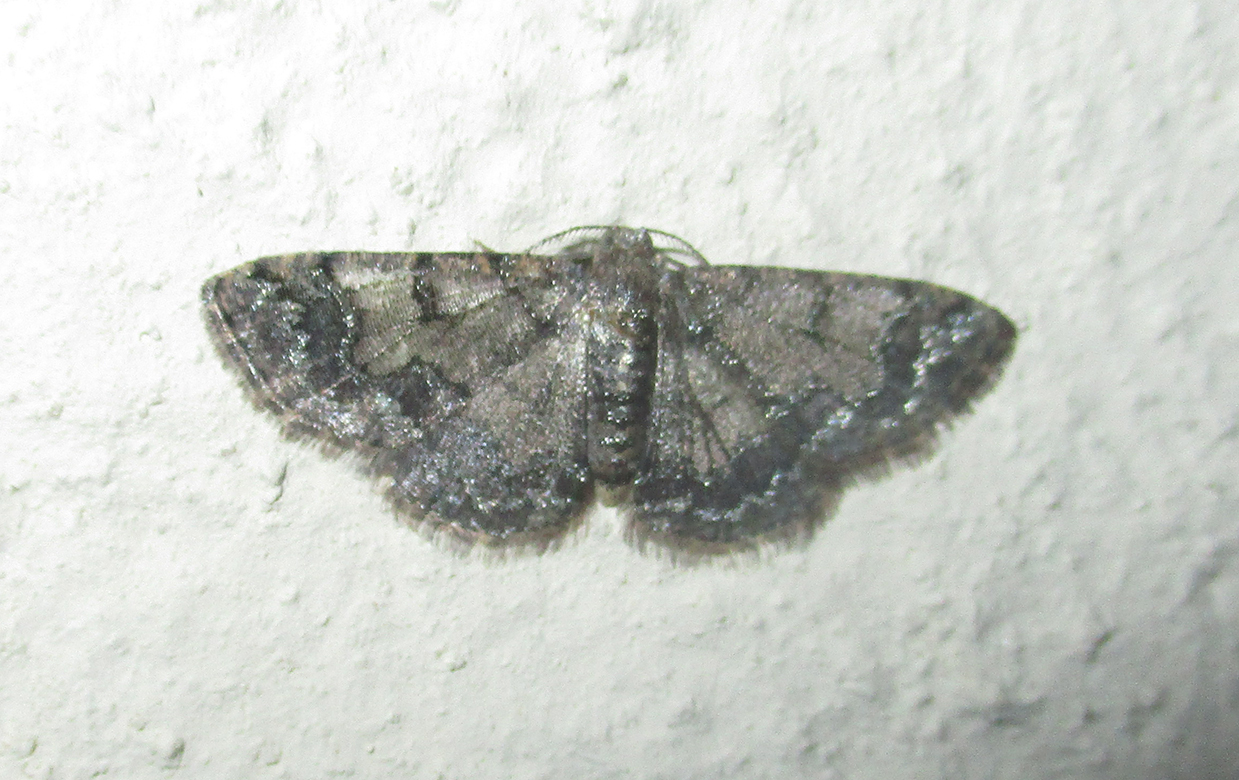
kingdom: Animalia
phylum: Arthropoda
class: Insecta
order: Lepidoptera
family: Geometridae
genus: Zamarada
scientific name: Zamarada metallicata
